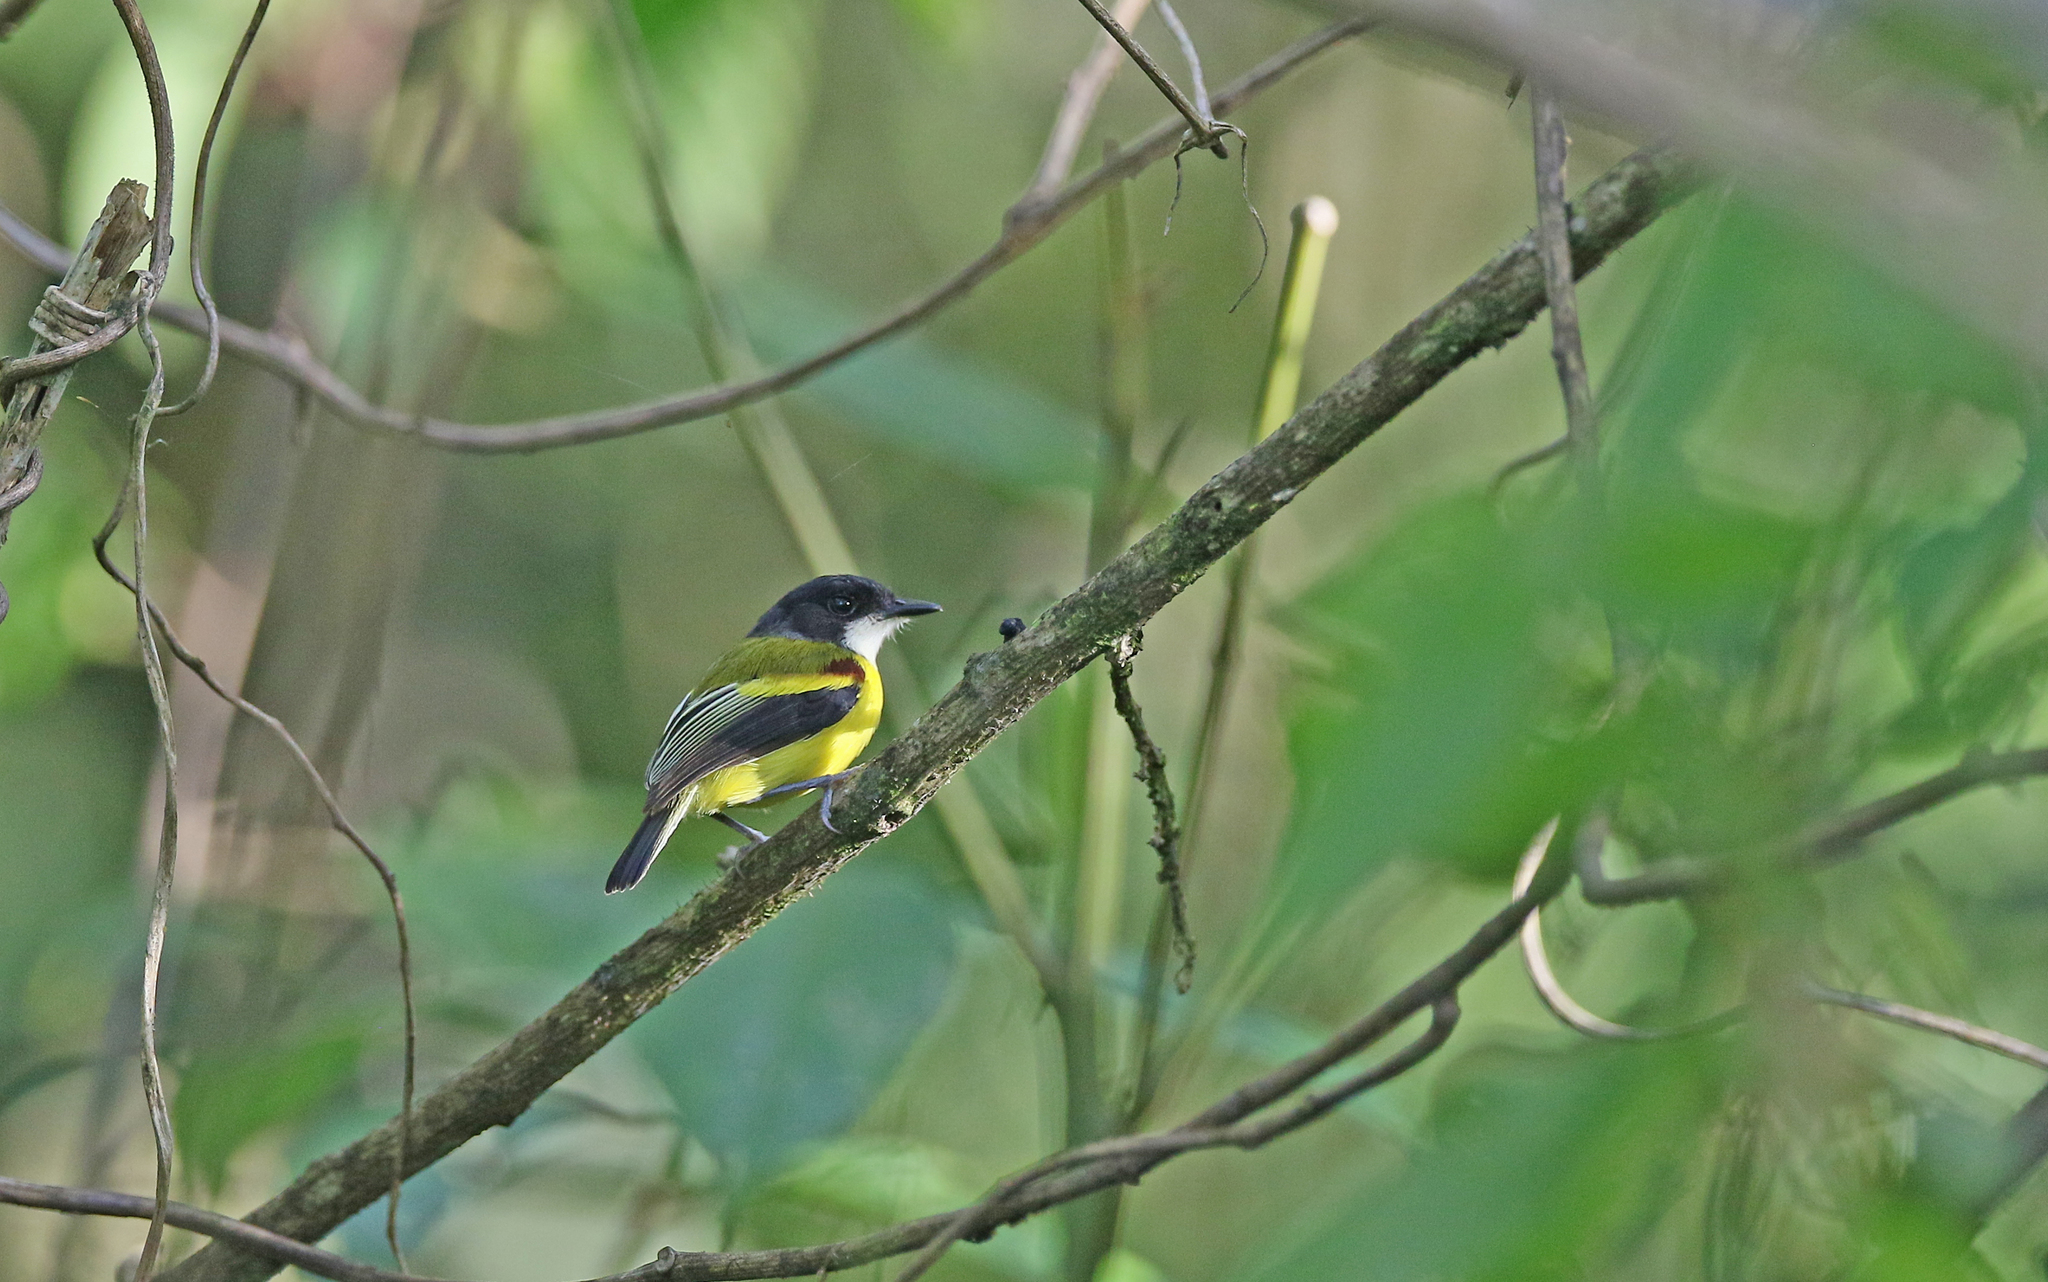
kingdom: Animalia
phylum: Chordata
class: Aves
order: Passeriformes
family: Tyrannidae
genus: Poecilotriccus
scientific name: Poecilotriccus calopterus
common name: Golden-winged tody-flycatcher
